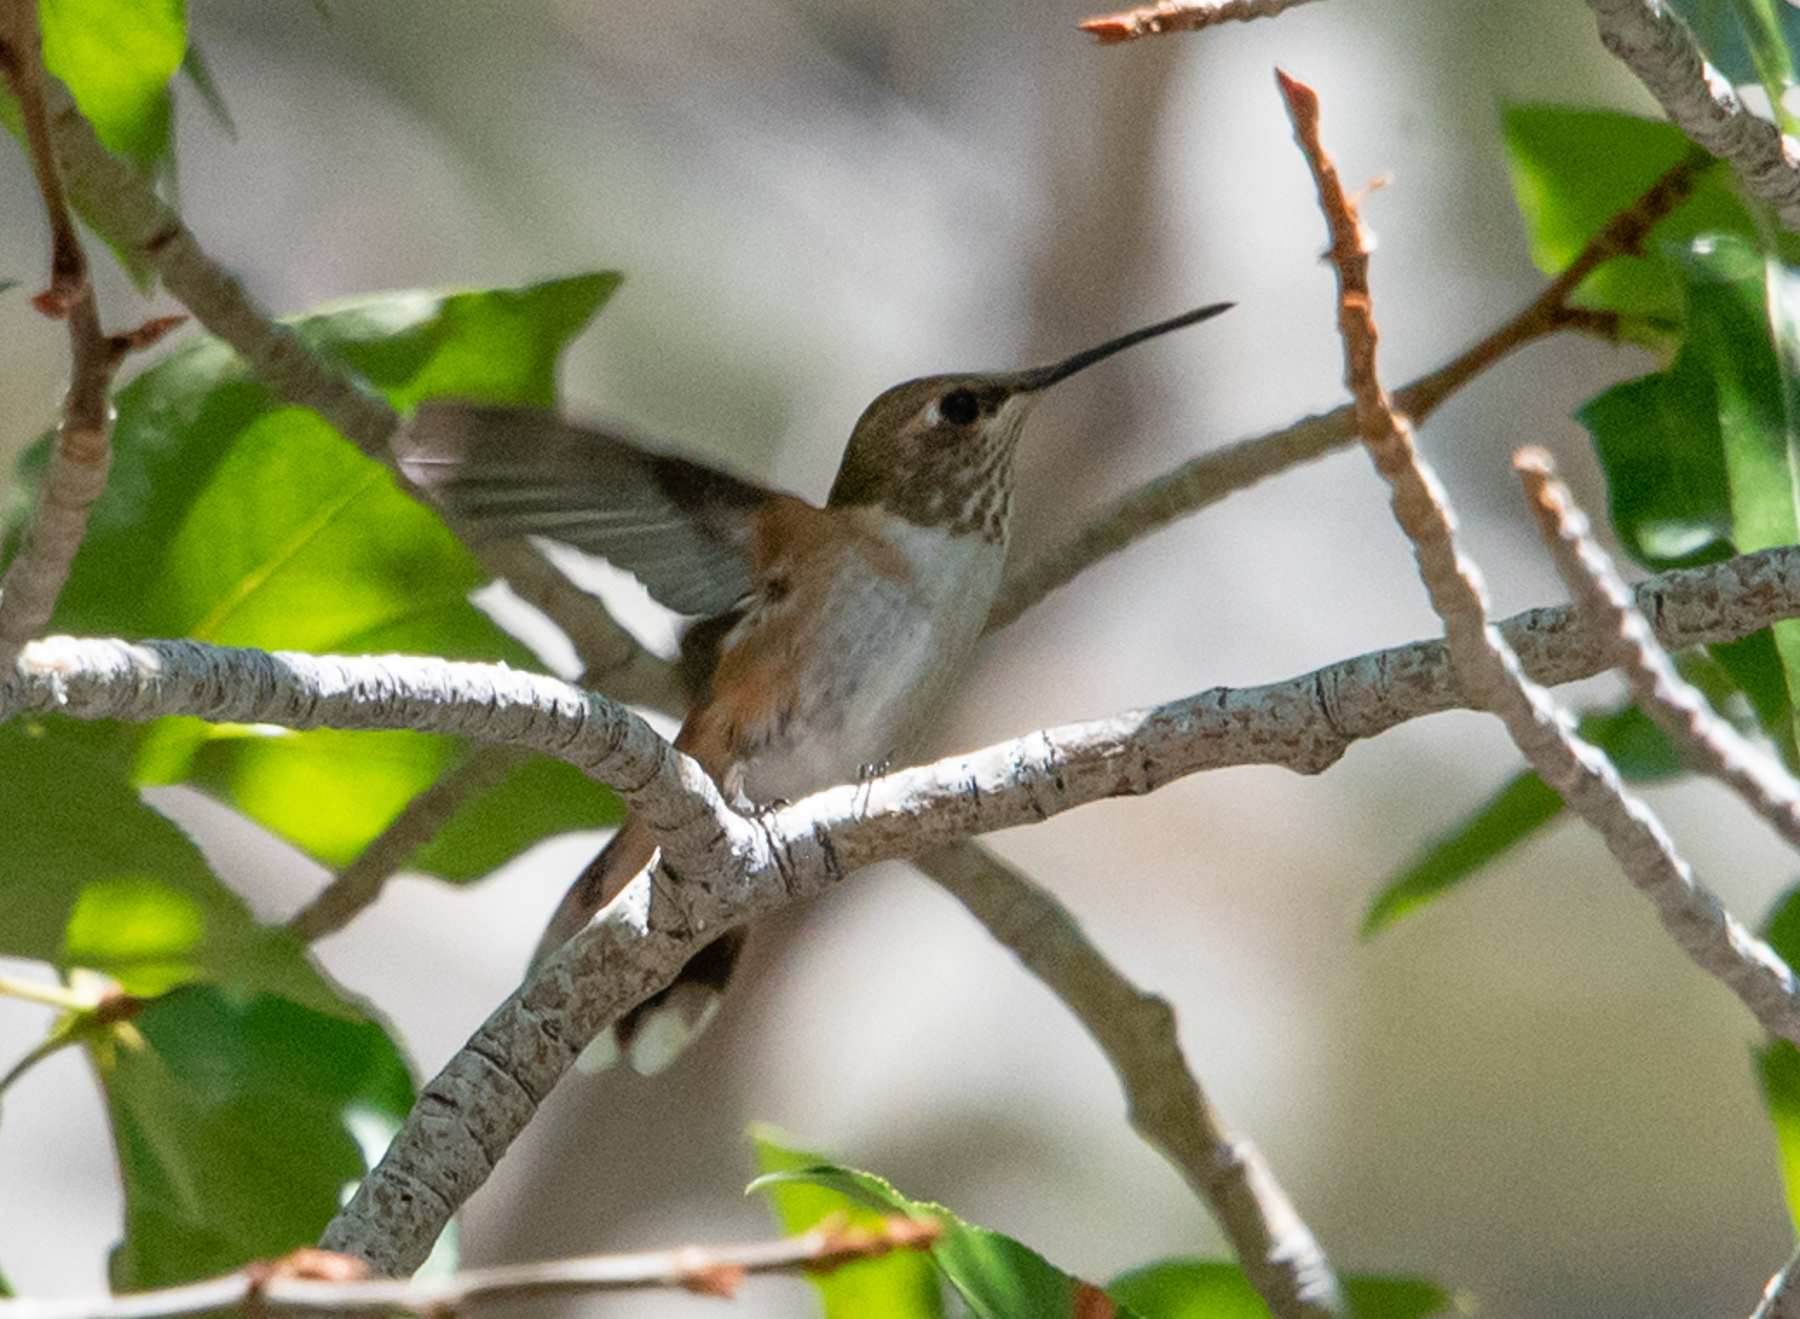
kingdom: Animalia
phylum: Chordata
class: Aves
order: Apodiformes
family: Trochilidae
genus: Selasphorus
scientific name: Selasphorus rufus
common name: Rufous hummingbird
